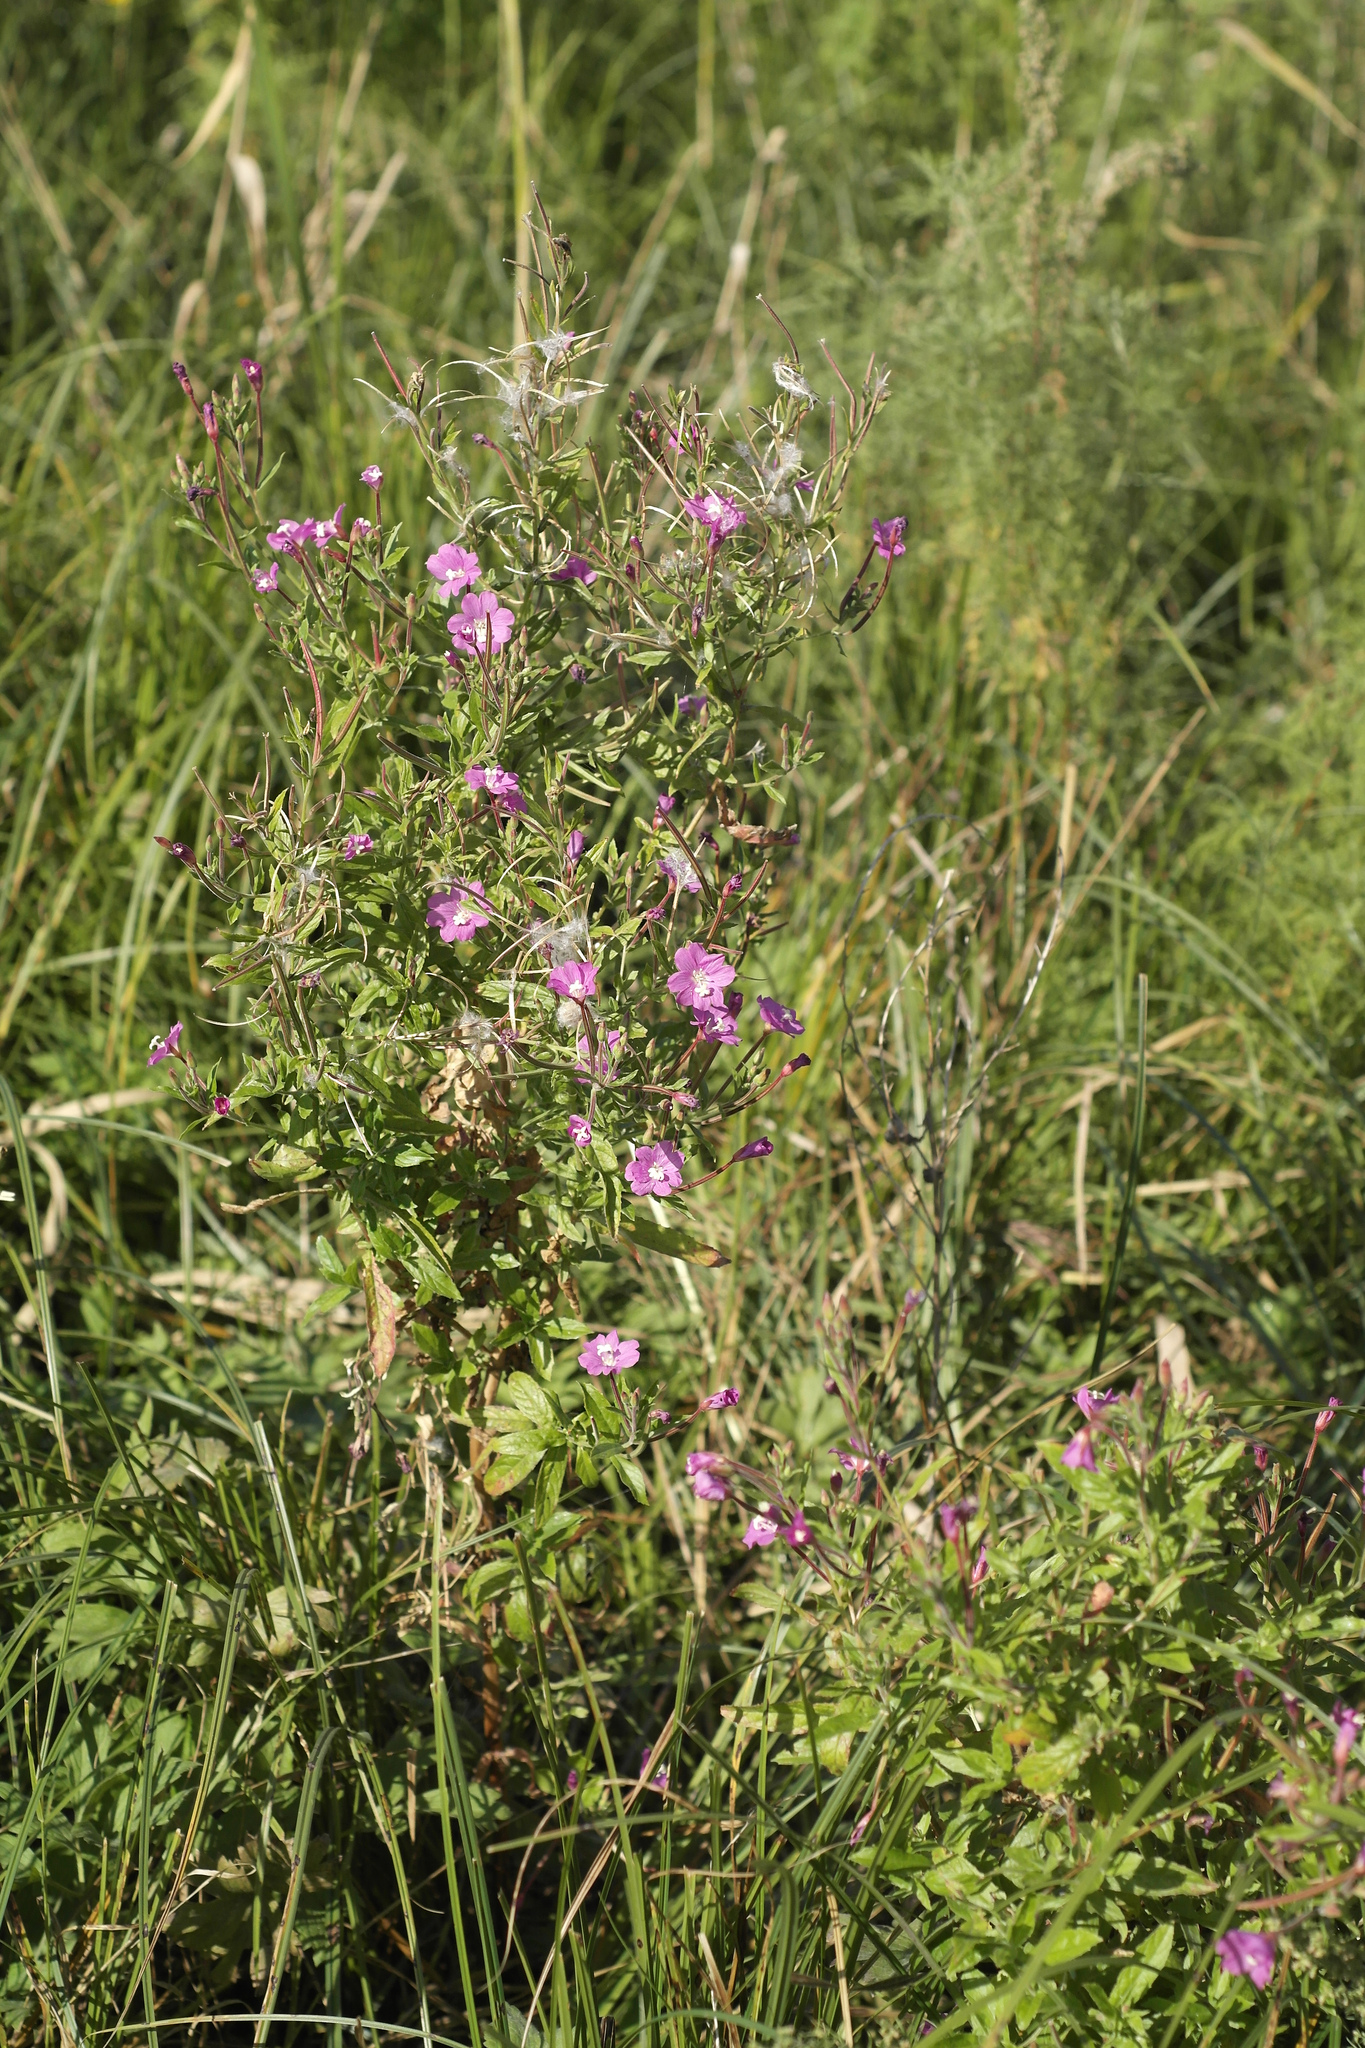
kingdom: Plantae
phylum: Tracheophyta
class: Magnoliopsida
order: Myrtales
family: Onagraceae
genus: Epilobium
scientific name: Epilobium hirsutum
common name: Great willowherb
